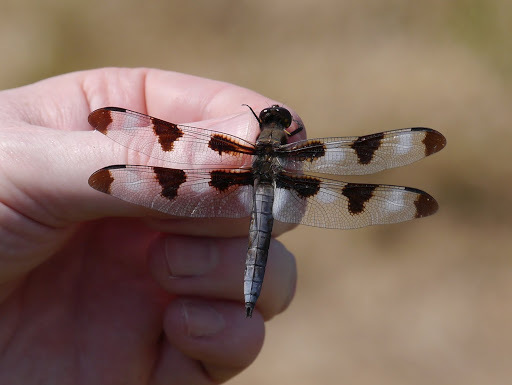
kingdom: Animalia
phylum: Arthropoda
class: Insecta
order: Odonata
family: Libellulidae
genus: Libellula
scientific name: Libellula pulchella
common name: Twelve-spotted skimmer
